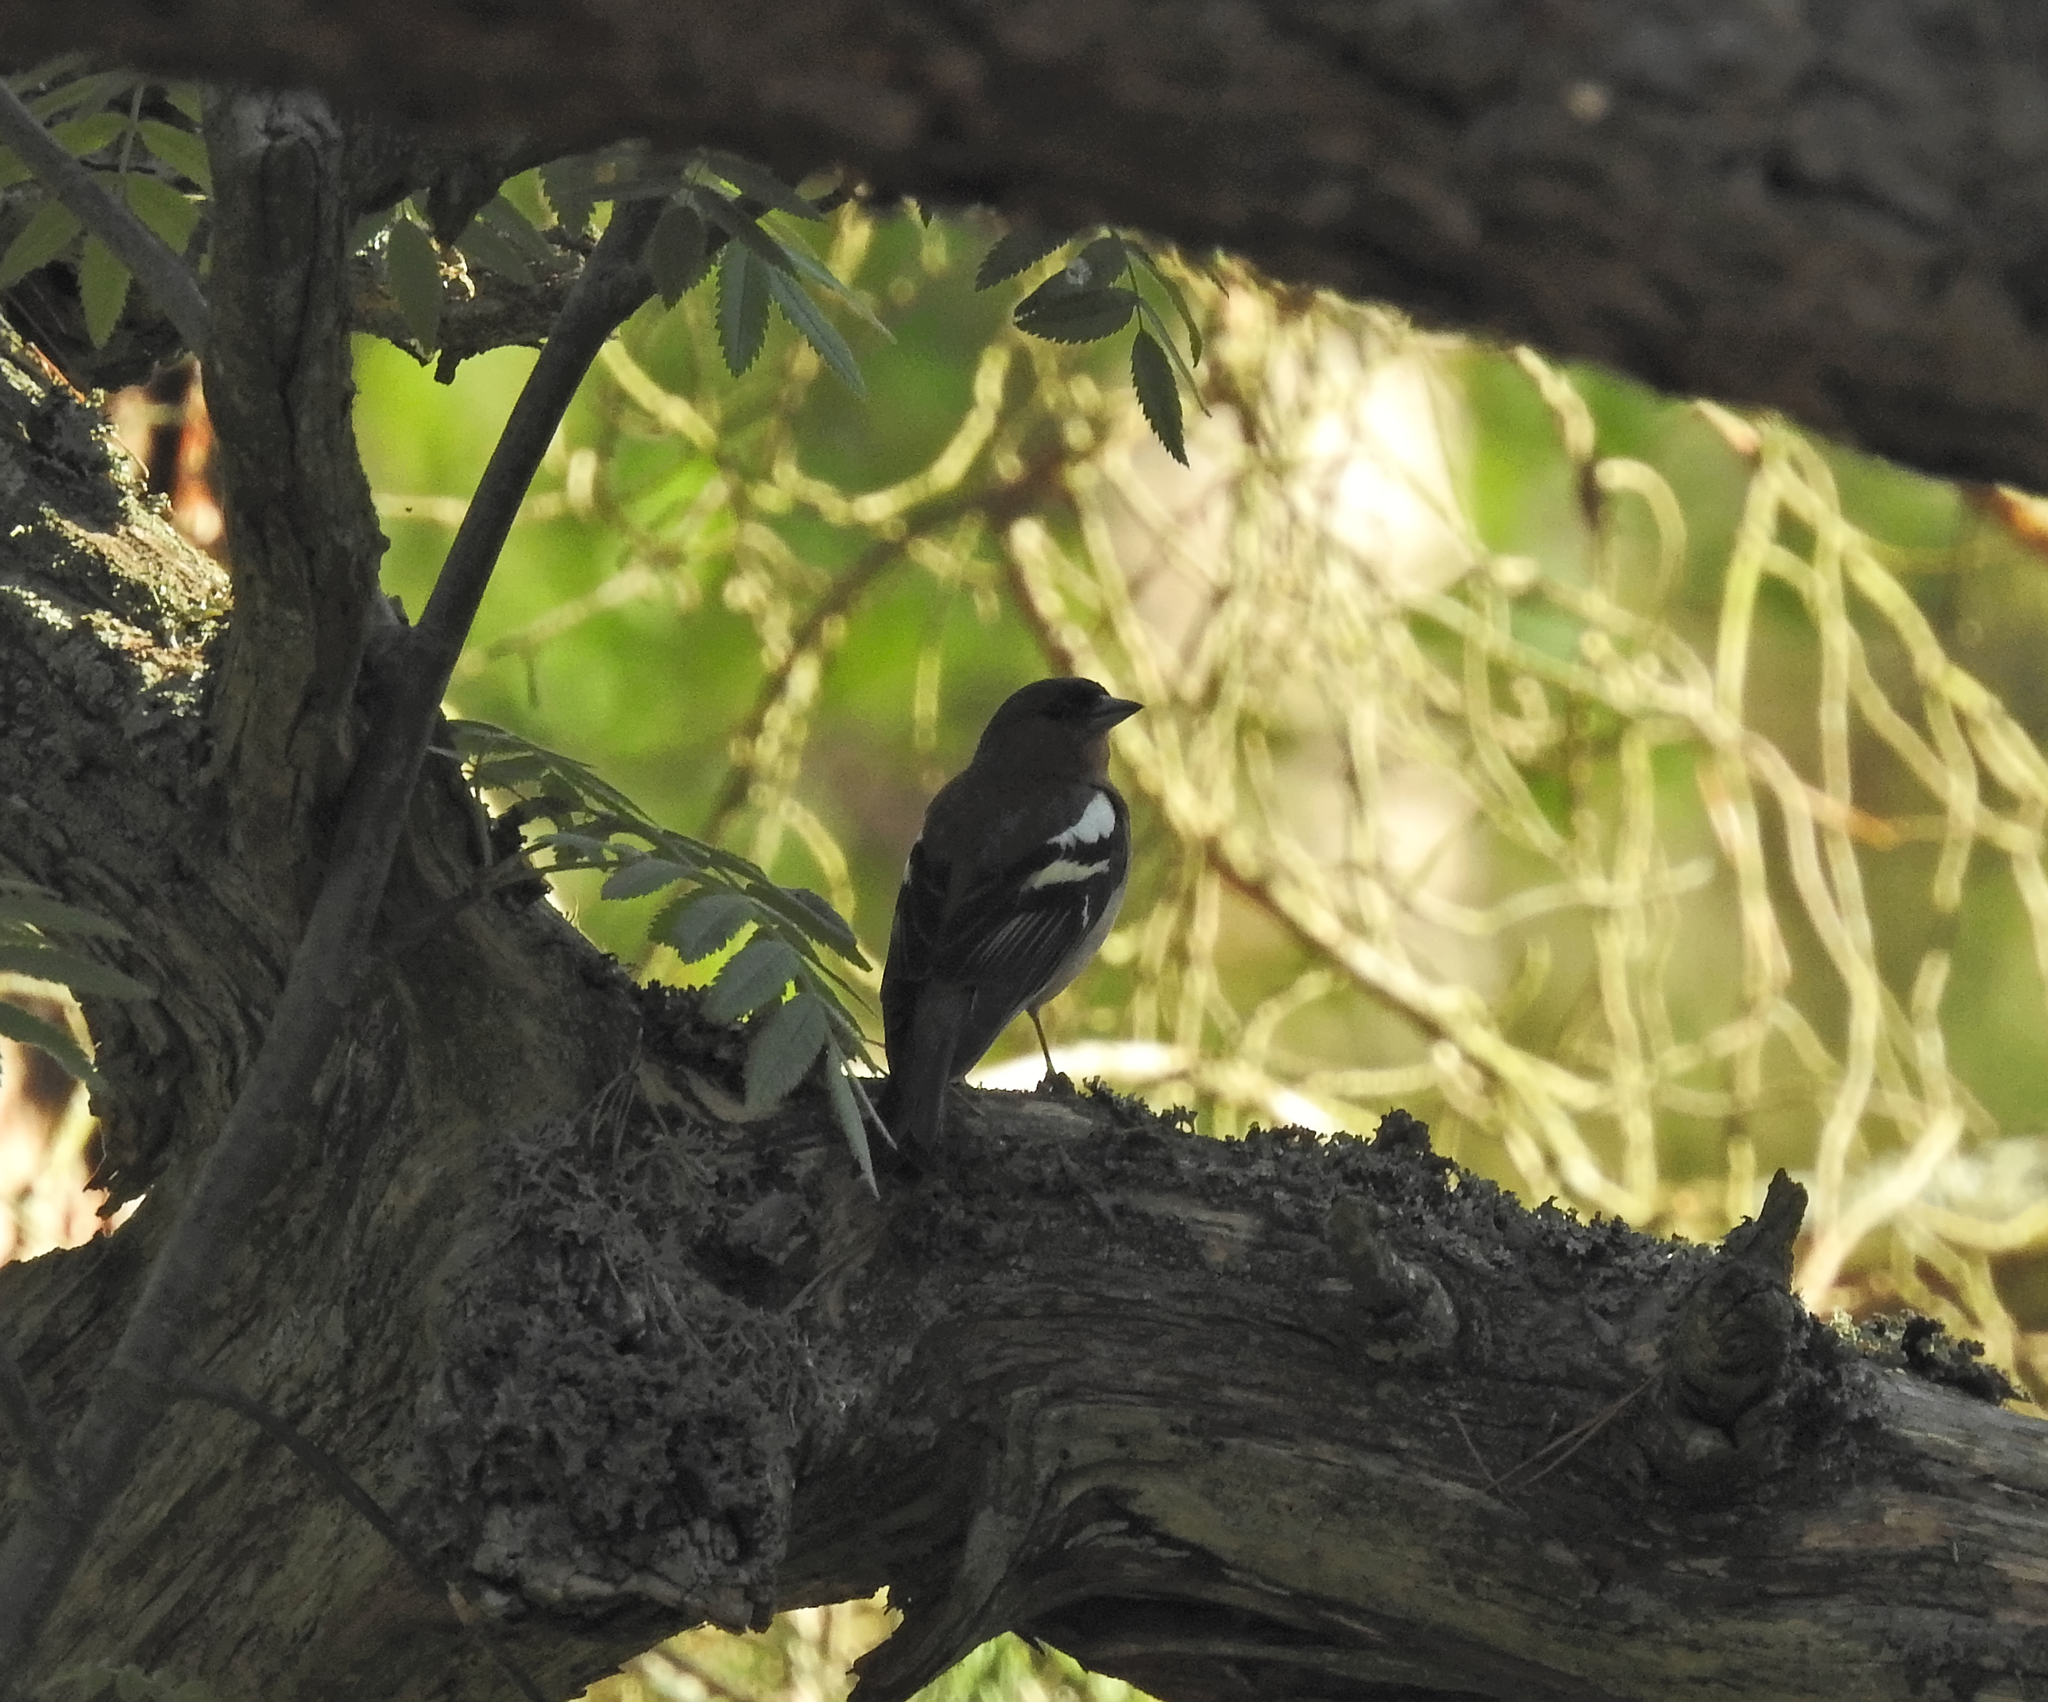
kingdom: Animalia
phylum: Chordata
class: Aves
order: Passeriformes
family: Fringillidae
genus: Fringilla
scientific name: Fringilla coelebs
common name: Common chaffinch
